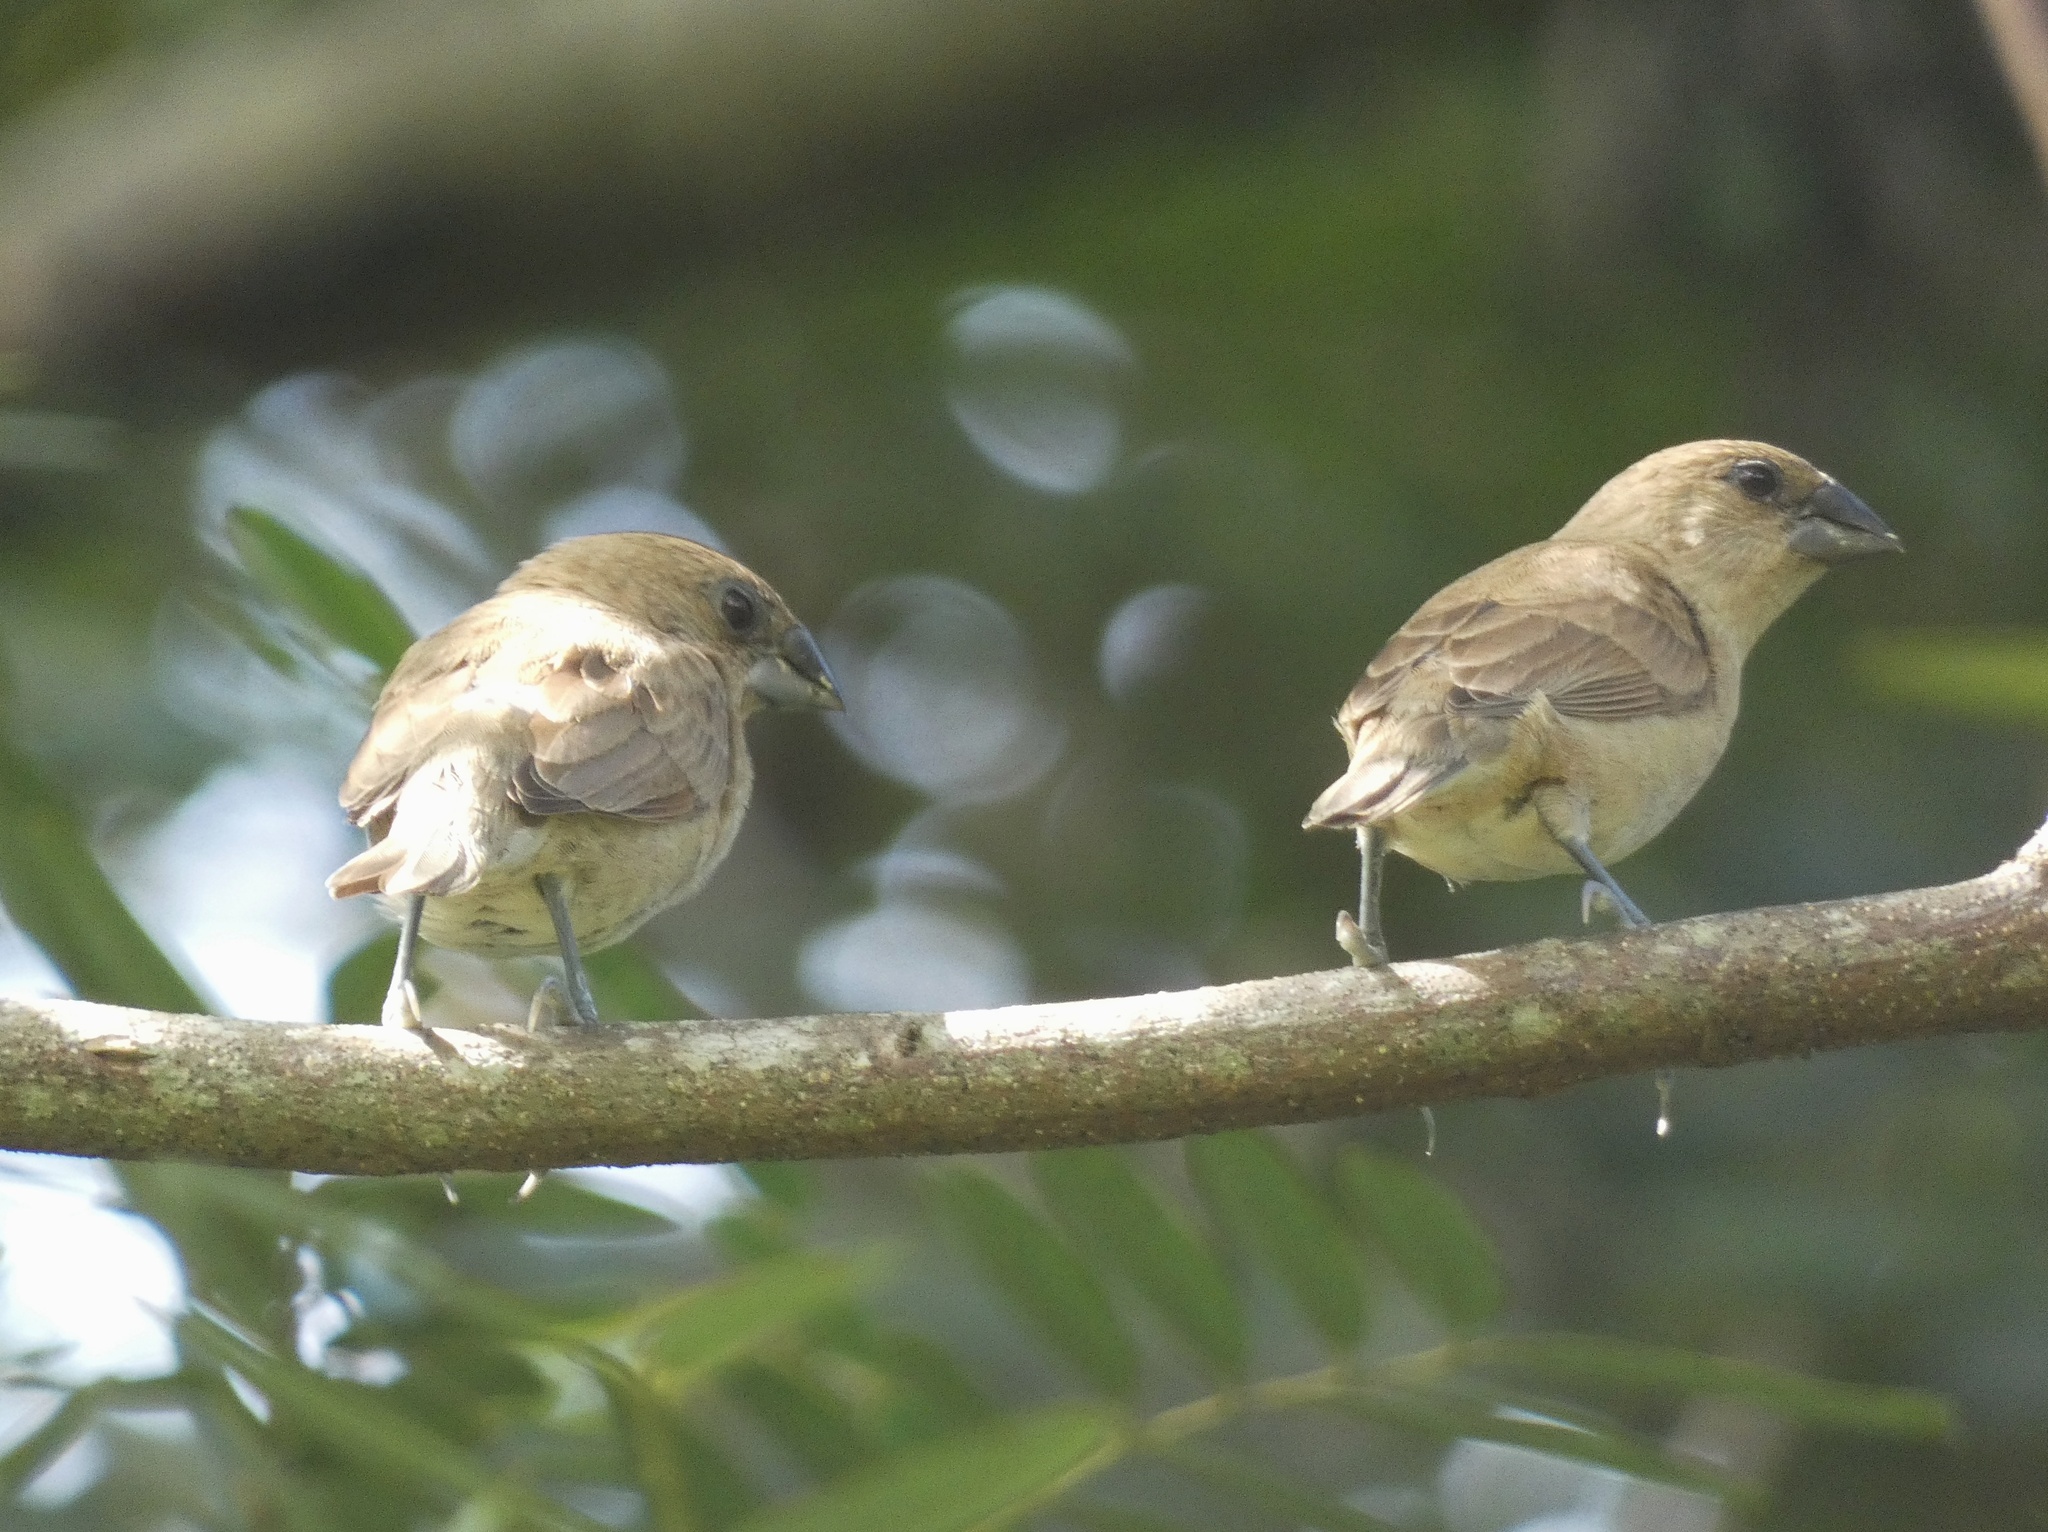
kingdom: Animalia
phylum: Chordata
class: Aves
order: Passeriformes
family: Estrildidae
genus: Lonchura
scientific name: Lonchura punctulata
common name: Scaly-breasted munia
